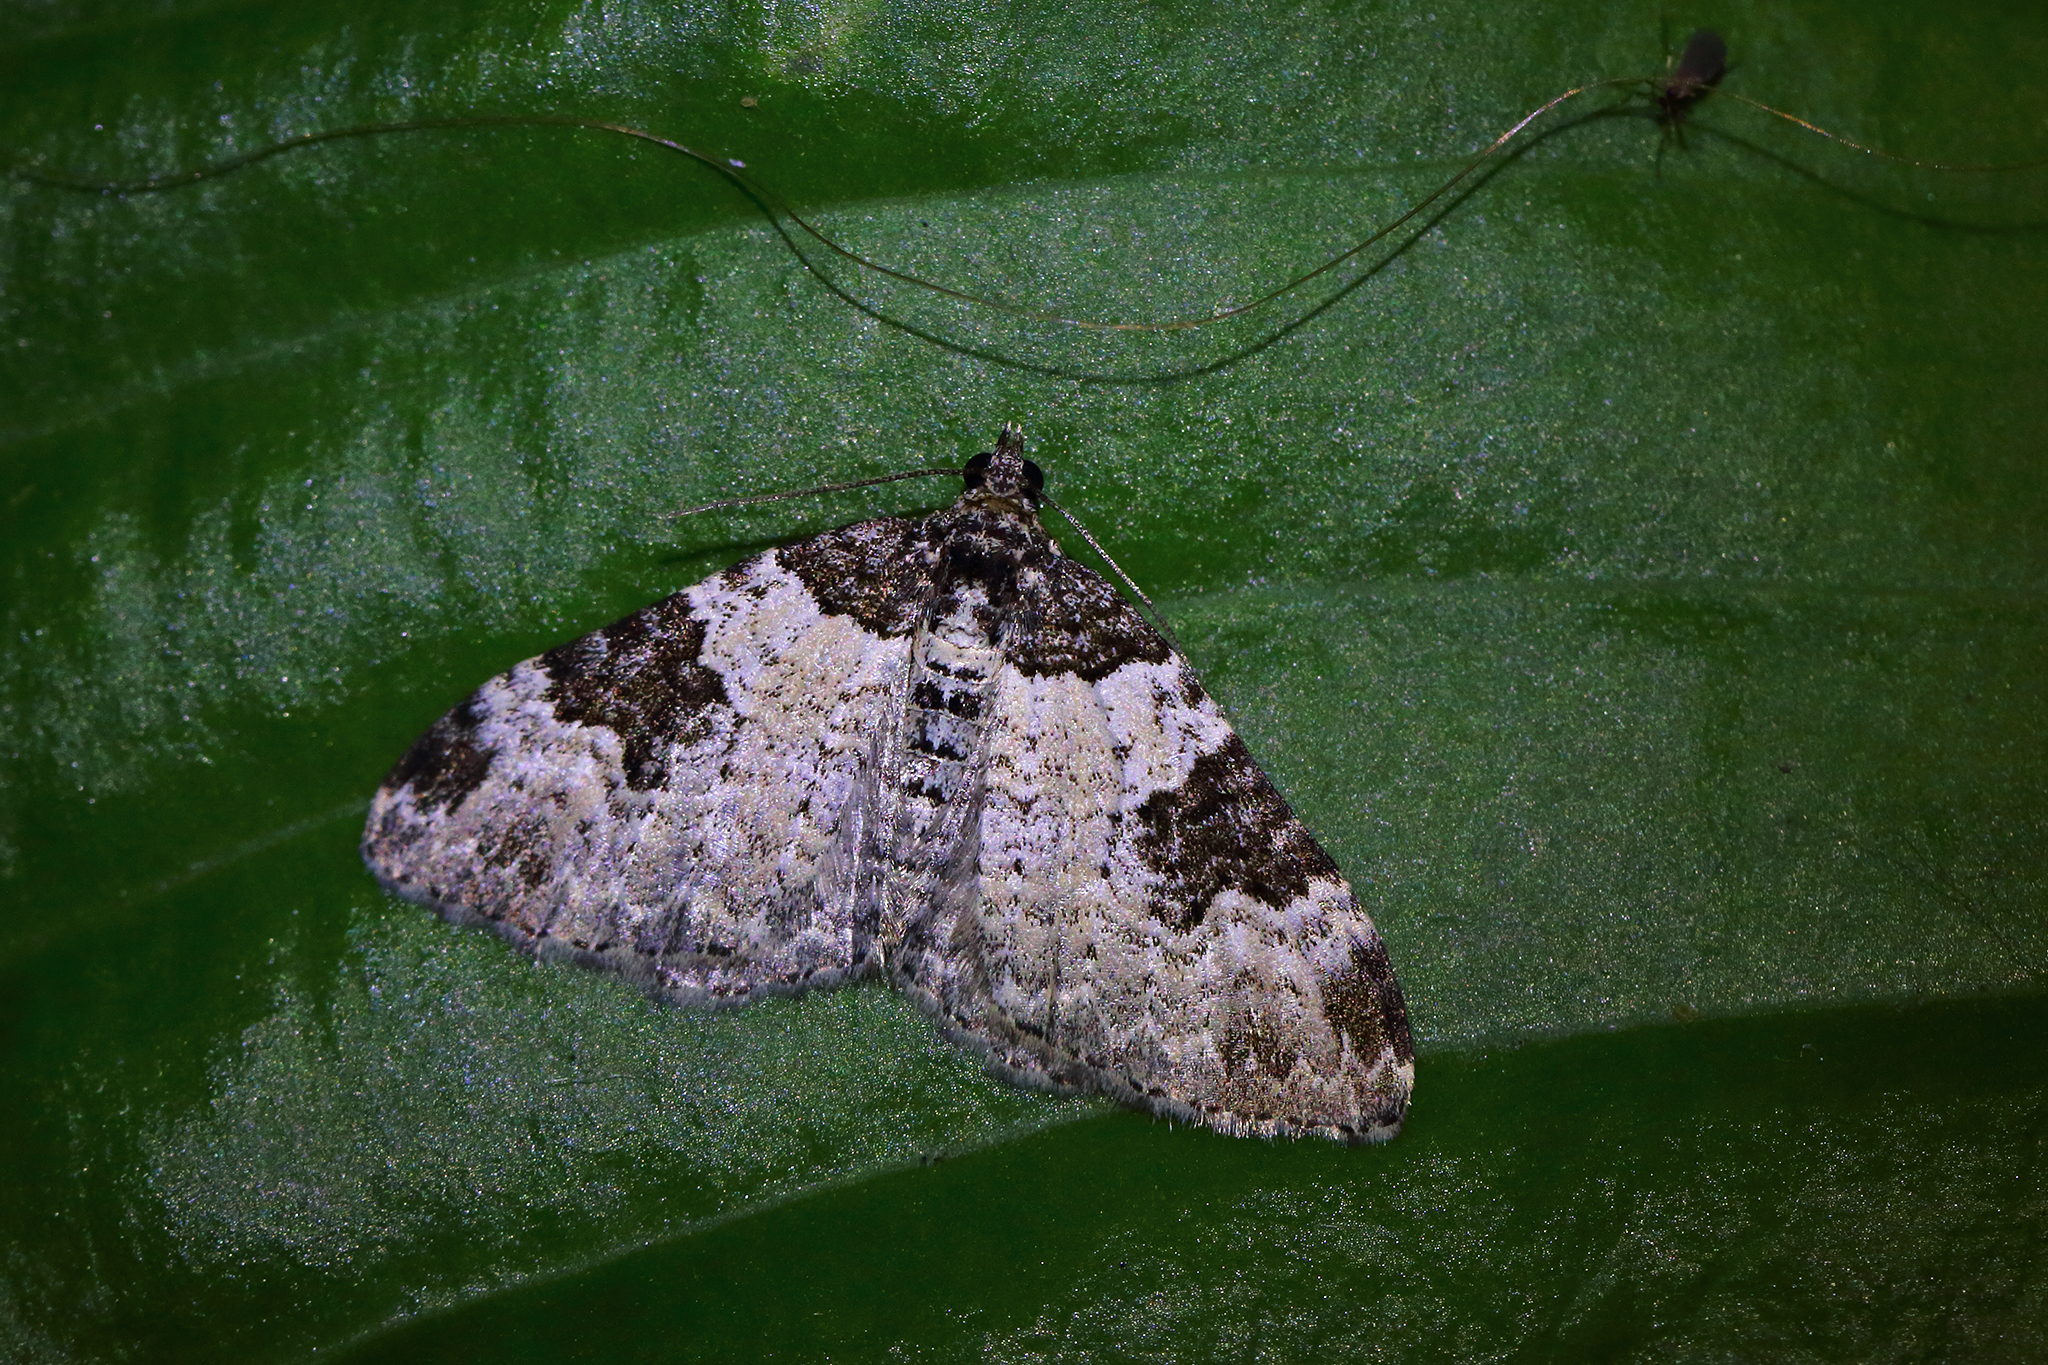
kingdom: Animalia
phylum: Arthropoda
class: Insecta
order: Lepidoptera
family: Geometridae
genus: Xanthorhoe
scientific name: Xanthorhoe fluctuata
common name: Garden carpet
